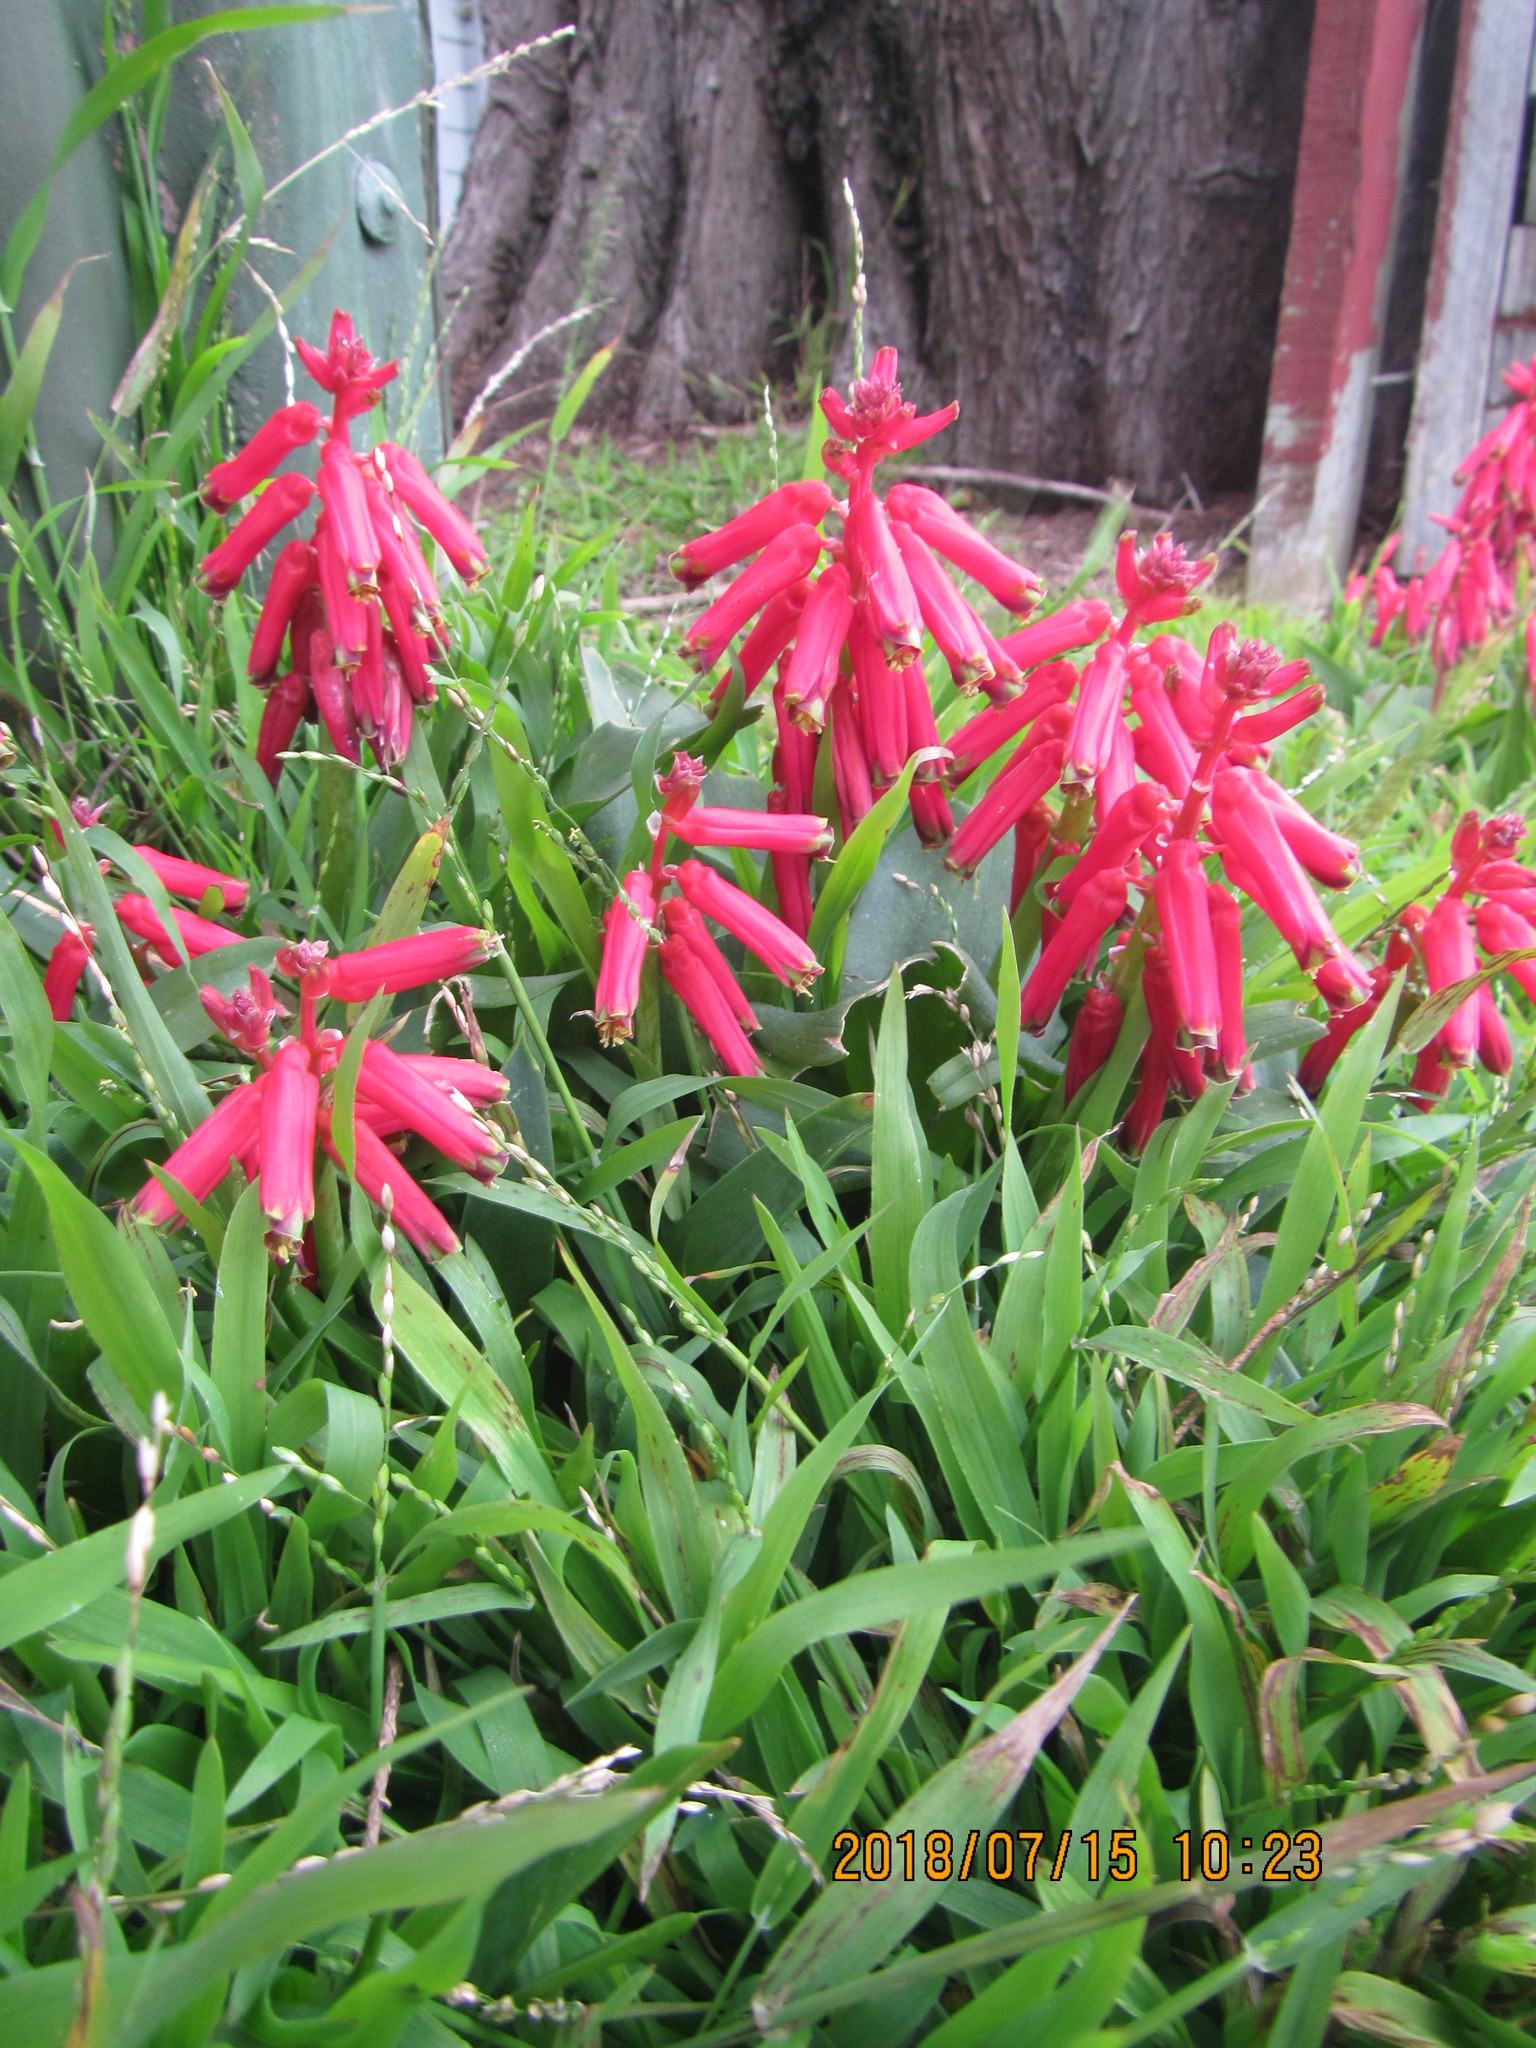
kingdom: Plantae
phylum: Tracheophyta
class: Liliopsida
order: Asparagales
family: Asparagaceae
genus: Lachenalia
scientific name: Lachenalia bulbifera
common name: Red lachenalia
